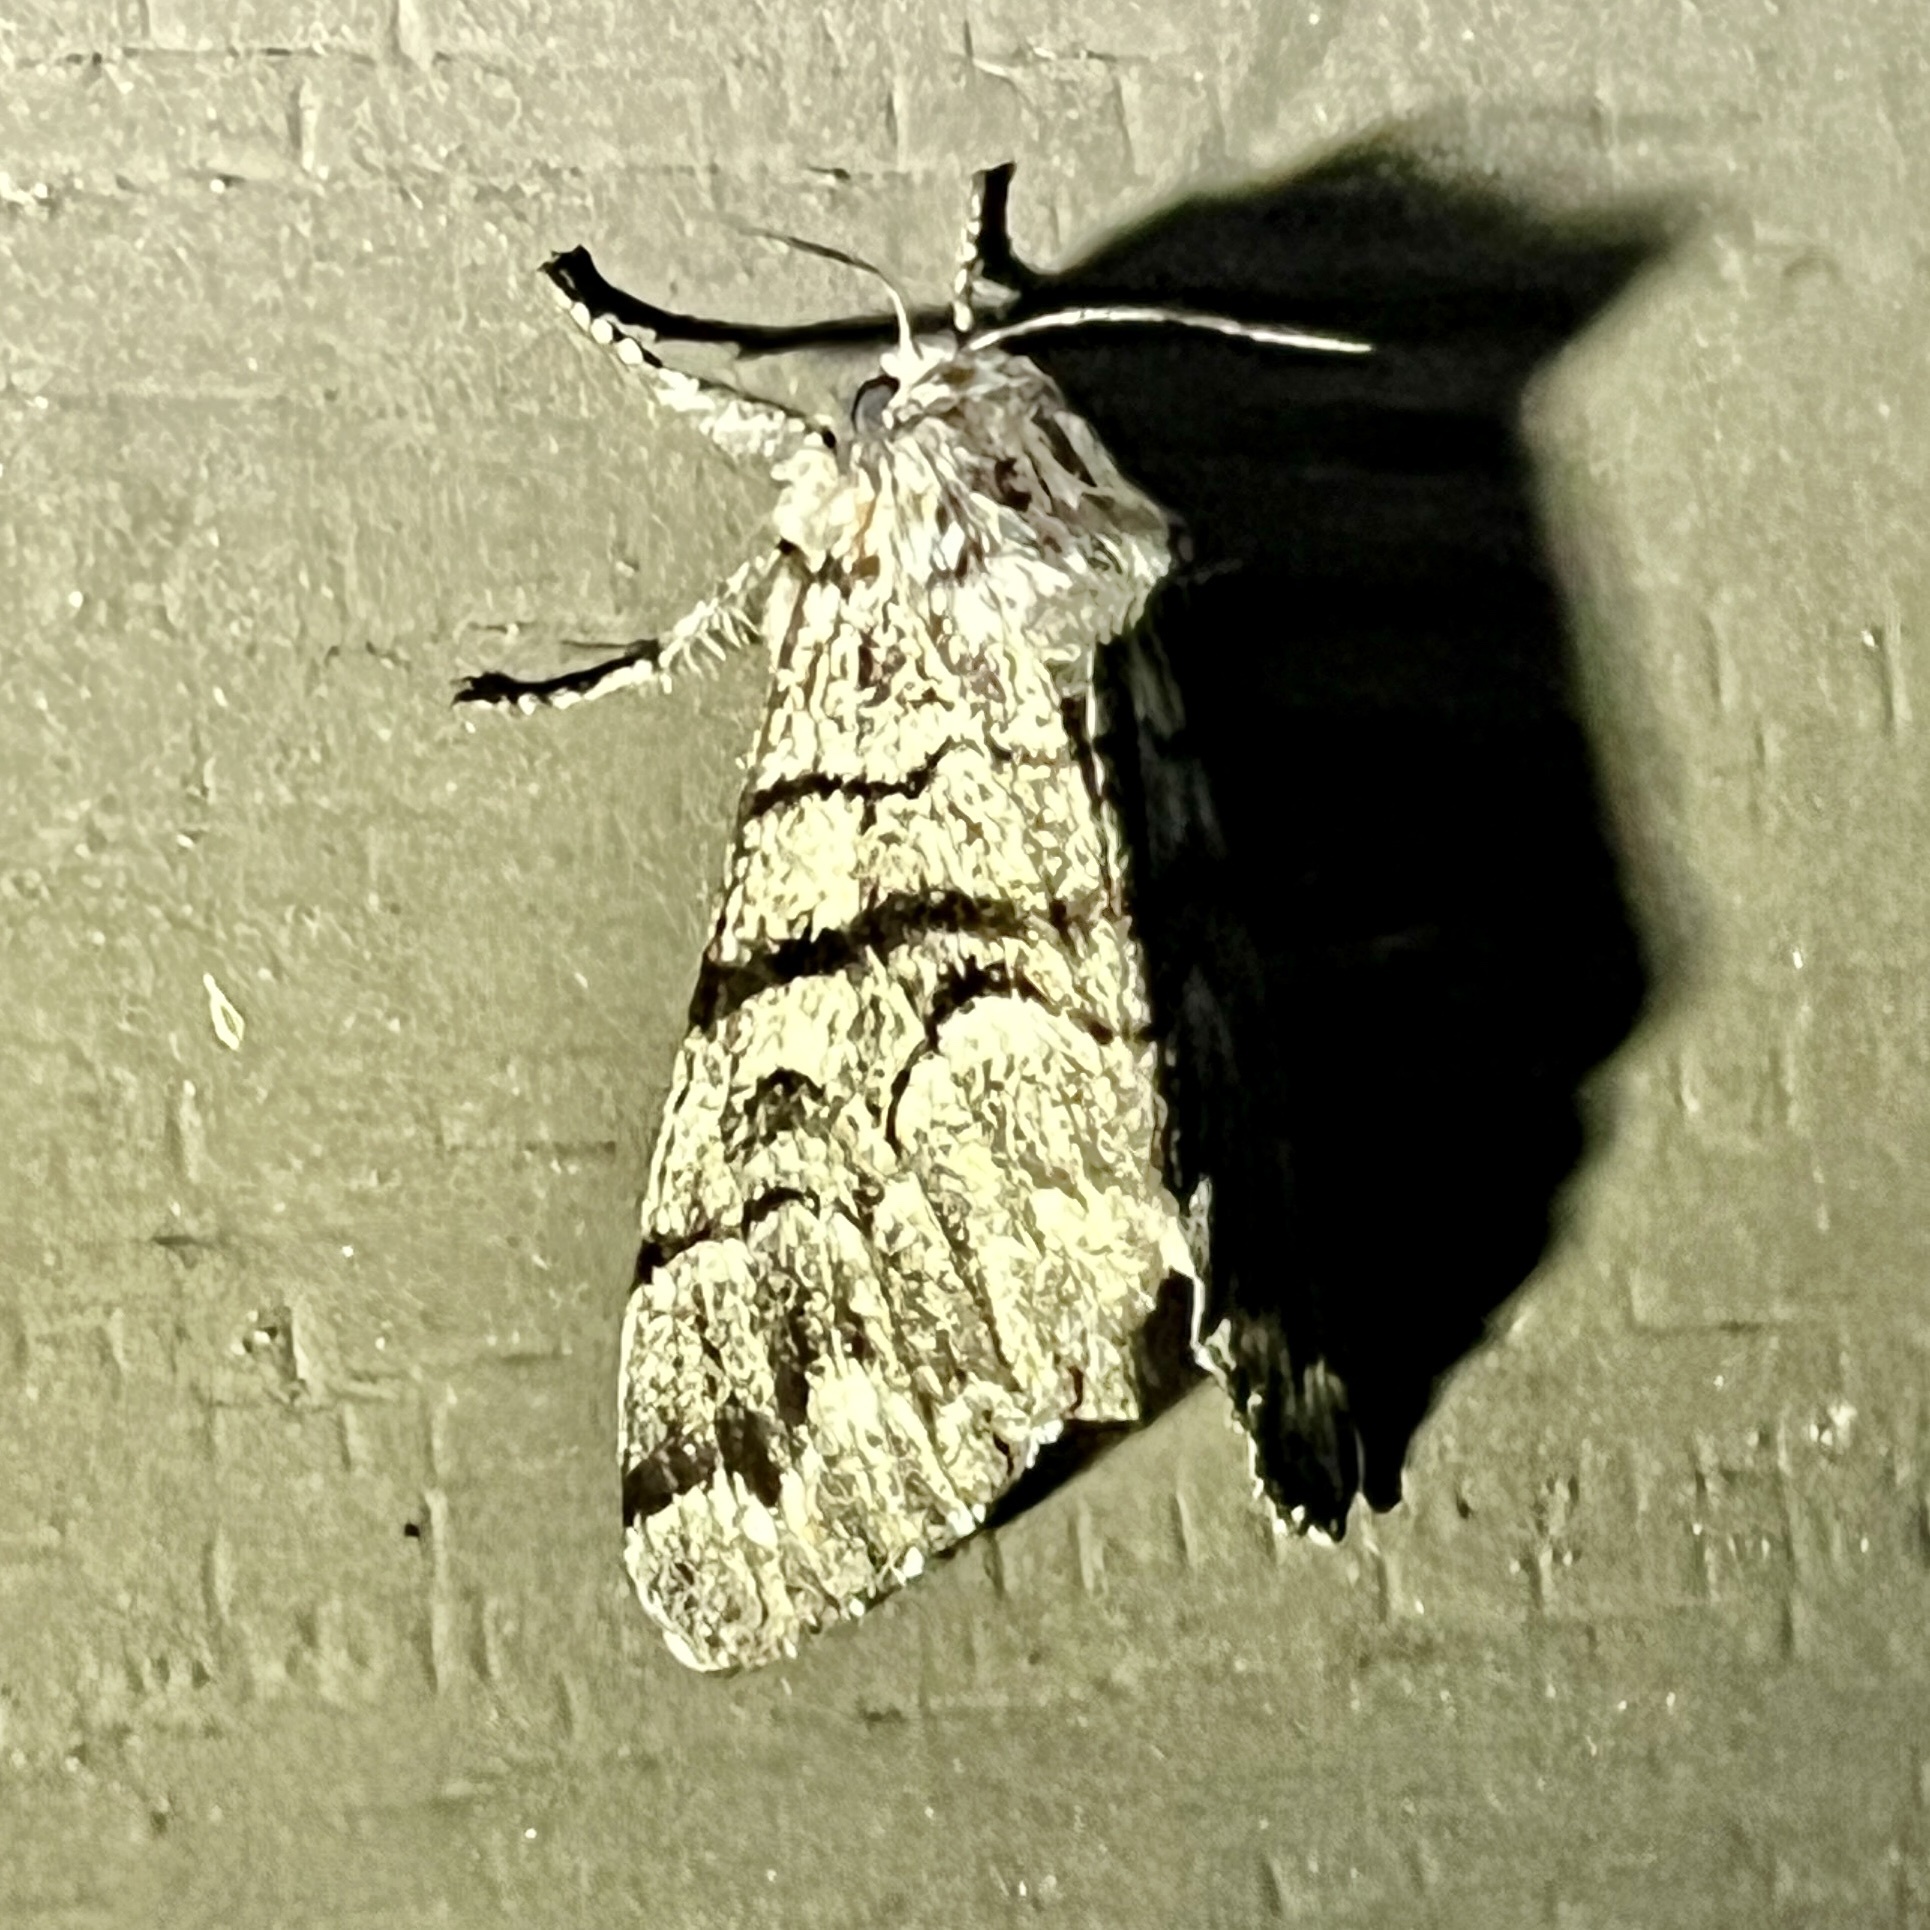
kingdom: Animalia
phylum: Arthropoda
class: Insecta
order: Lepidoptera
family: Noctuidae
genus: Panthea
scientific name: Panthea furcilla
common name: Eastern panthea moth
